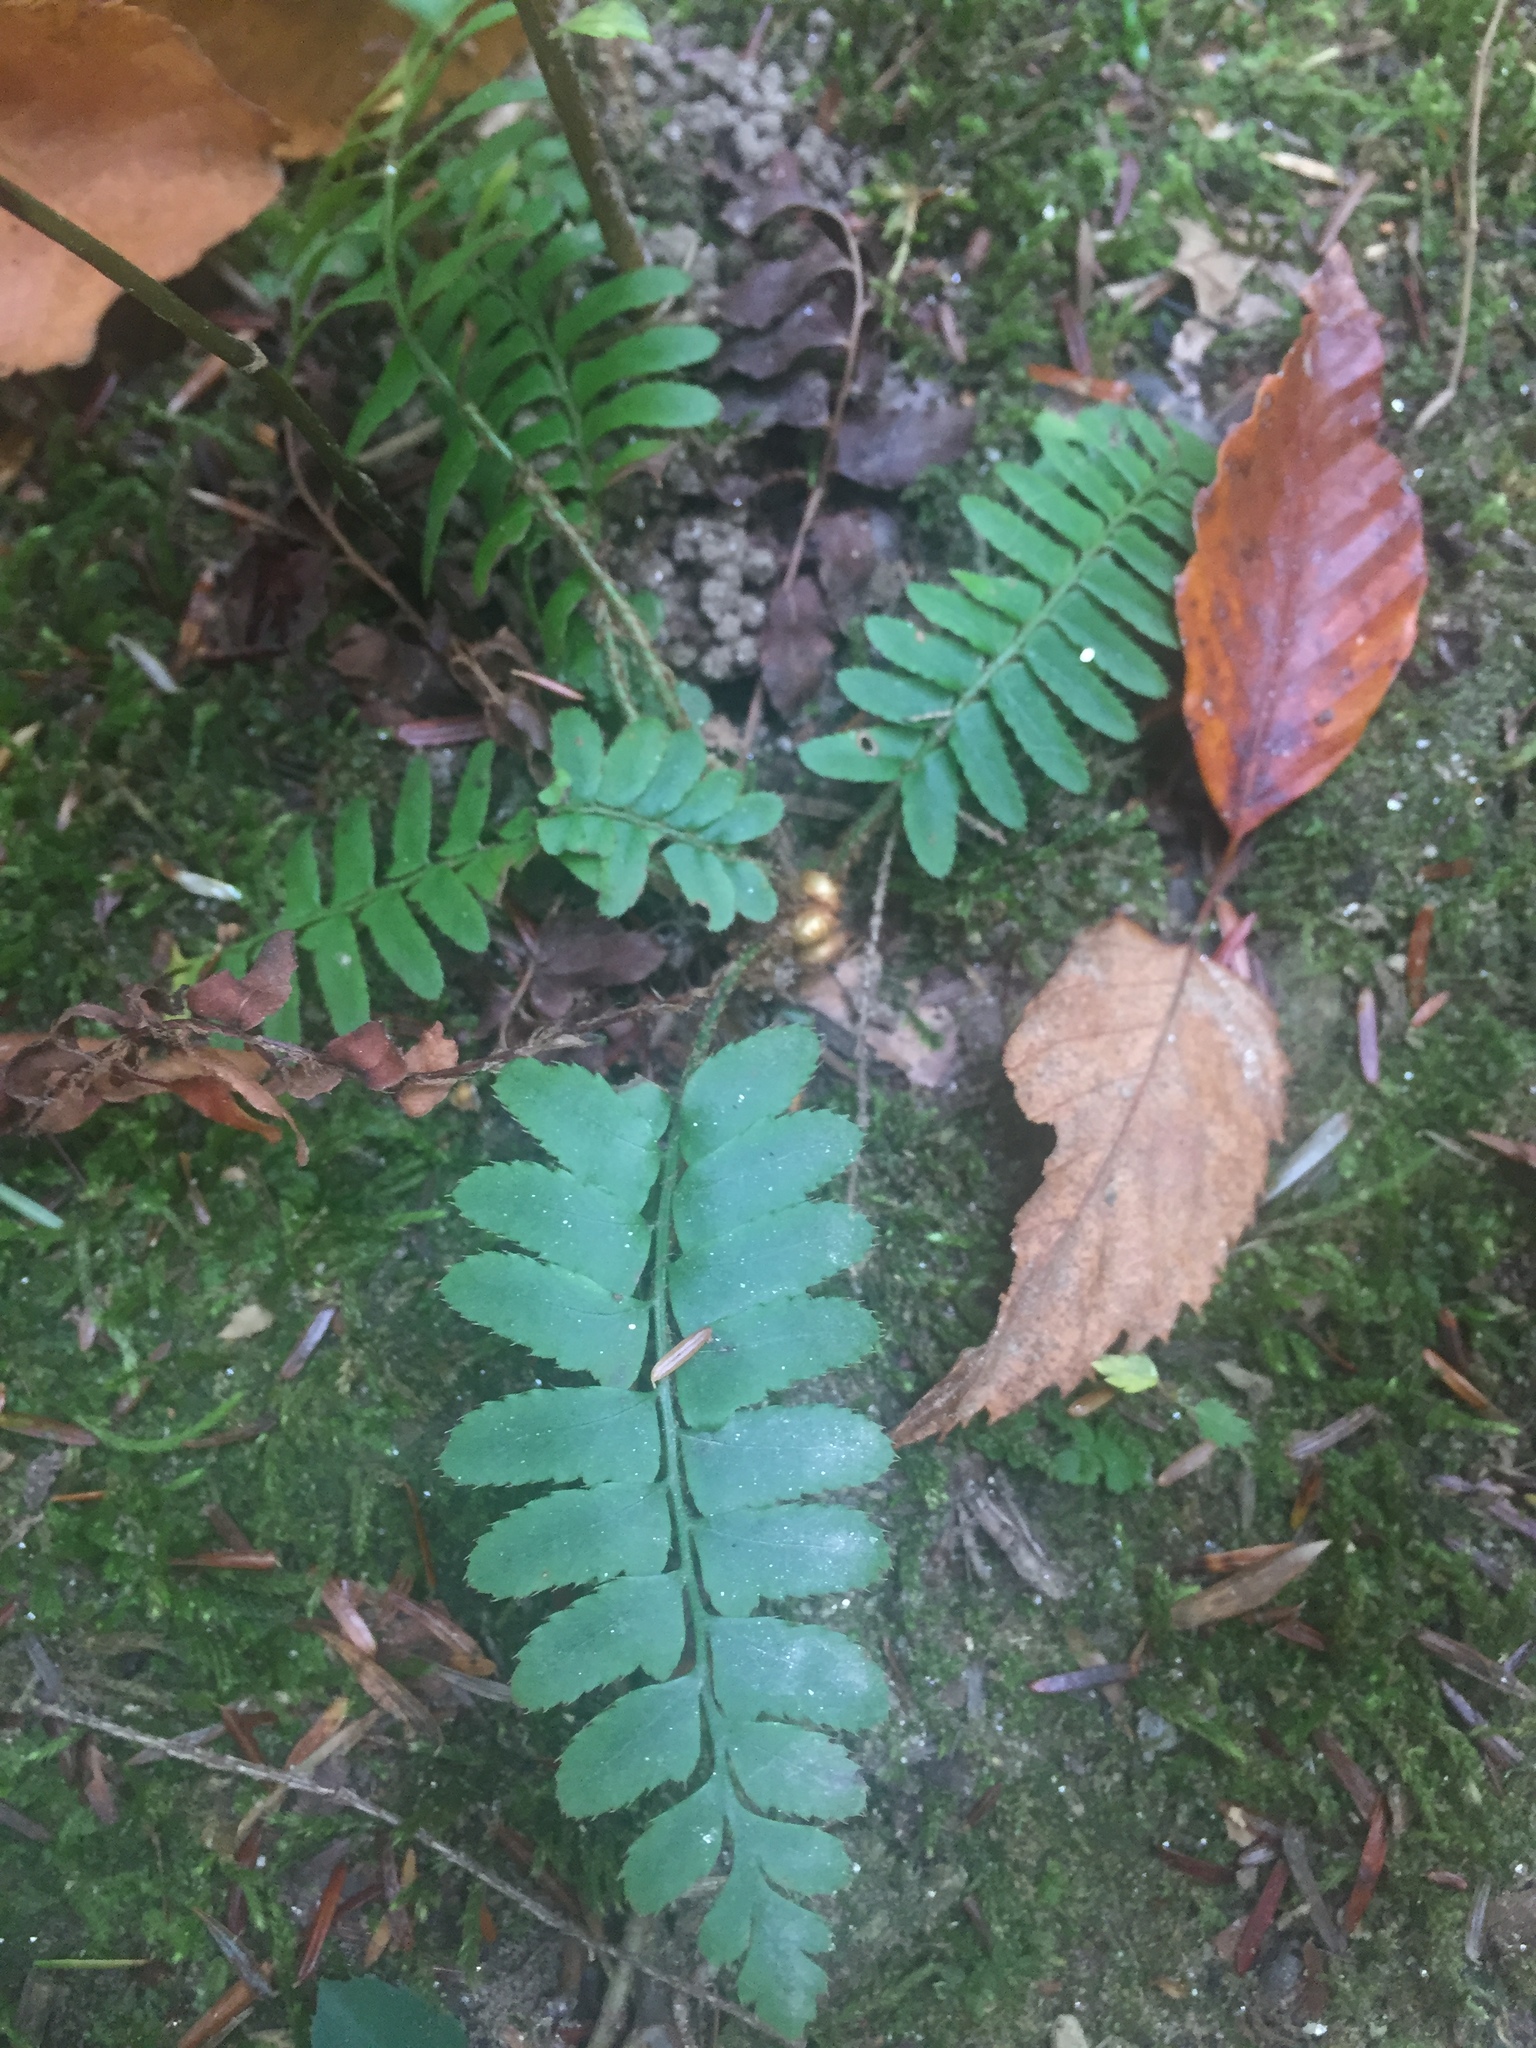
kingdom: Plantae
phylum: Tracheophyta
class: Polypodiopsida
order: Polypodiales
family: Dryopteridaceae
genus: Polystichum
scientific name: Polystichum acrostichoides
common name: Christmas fern
